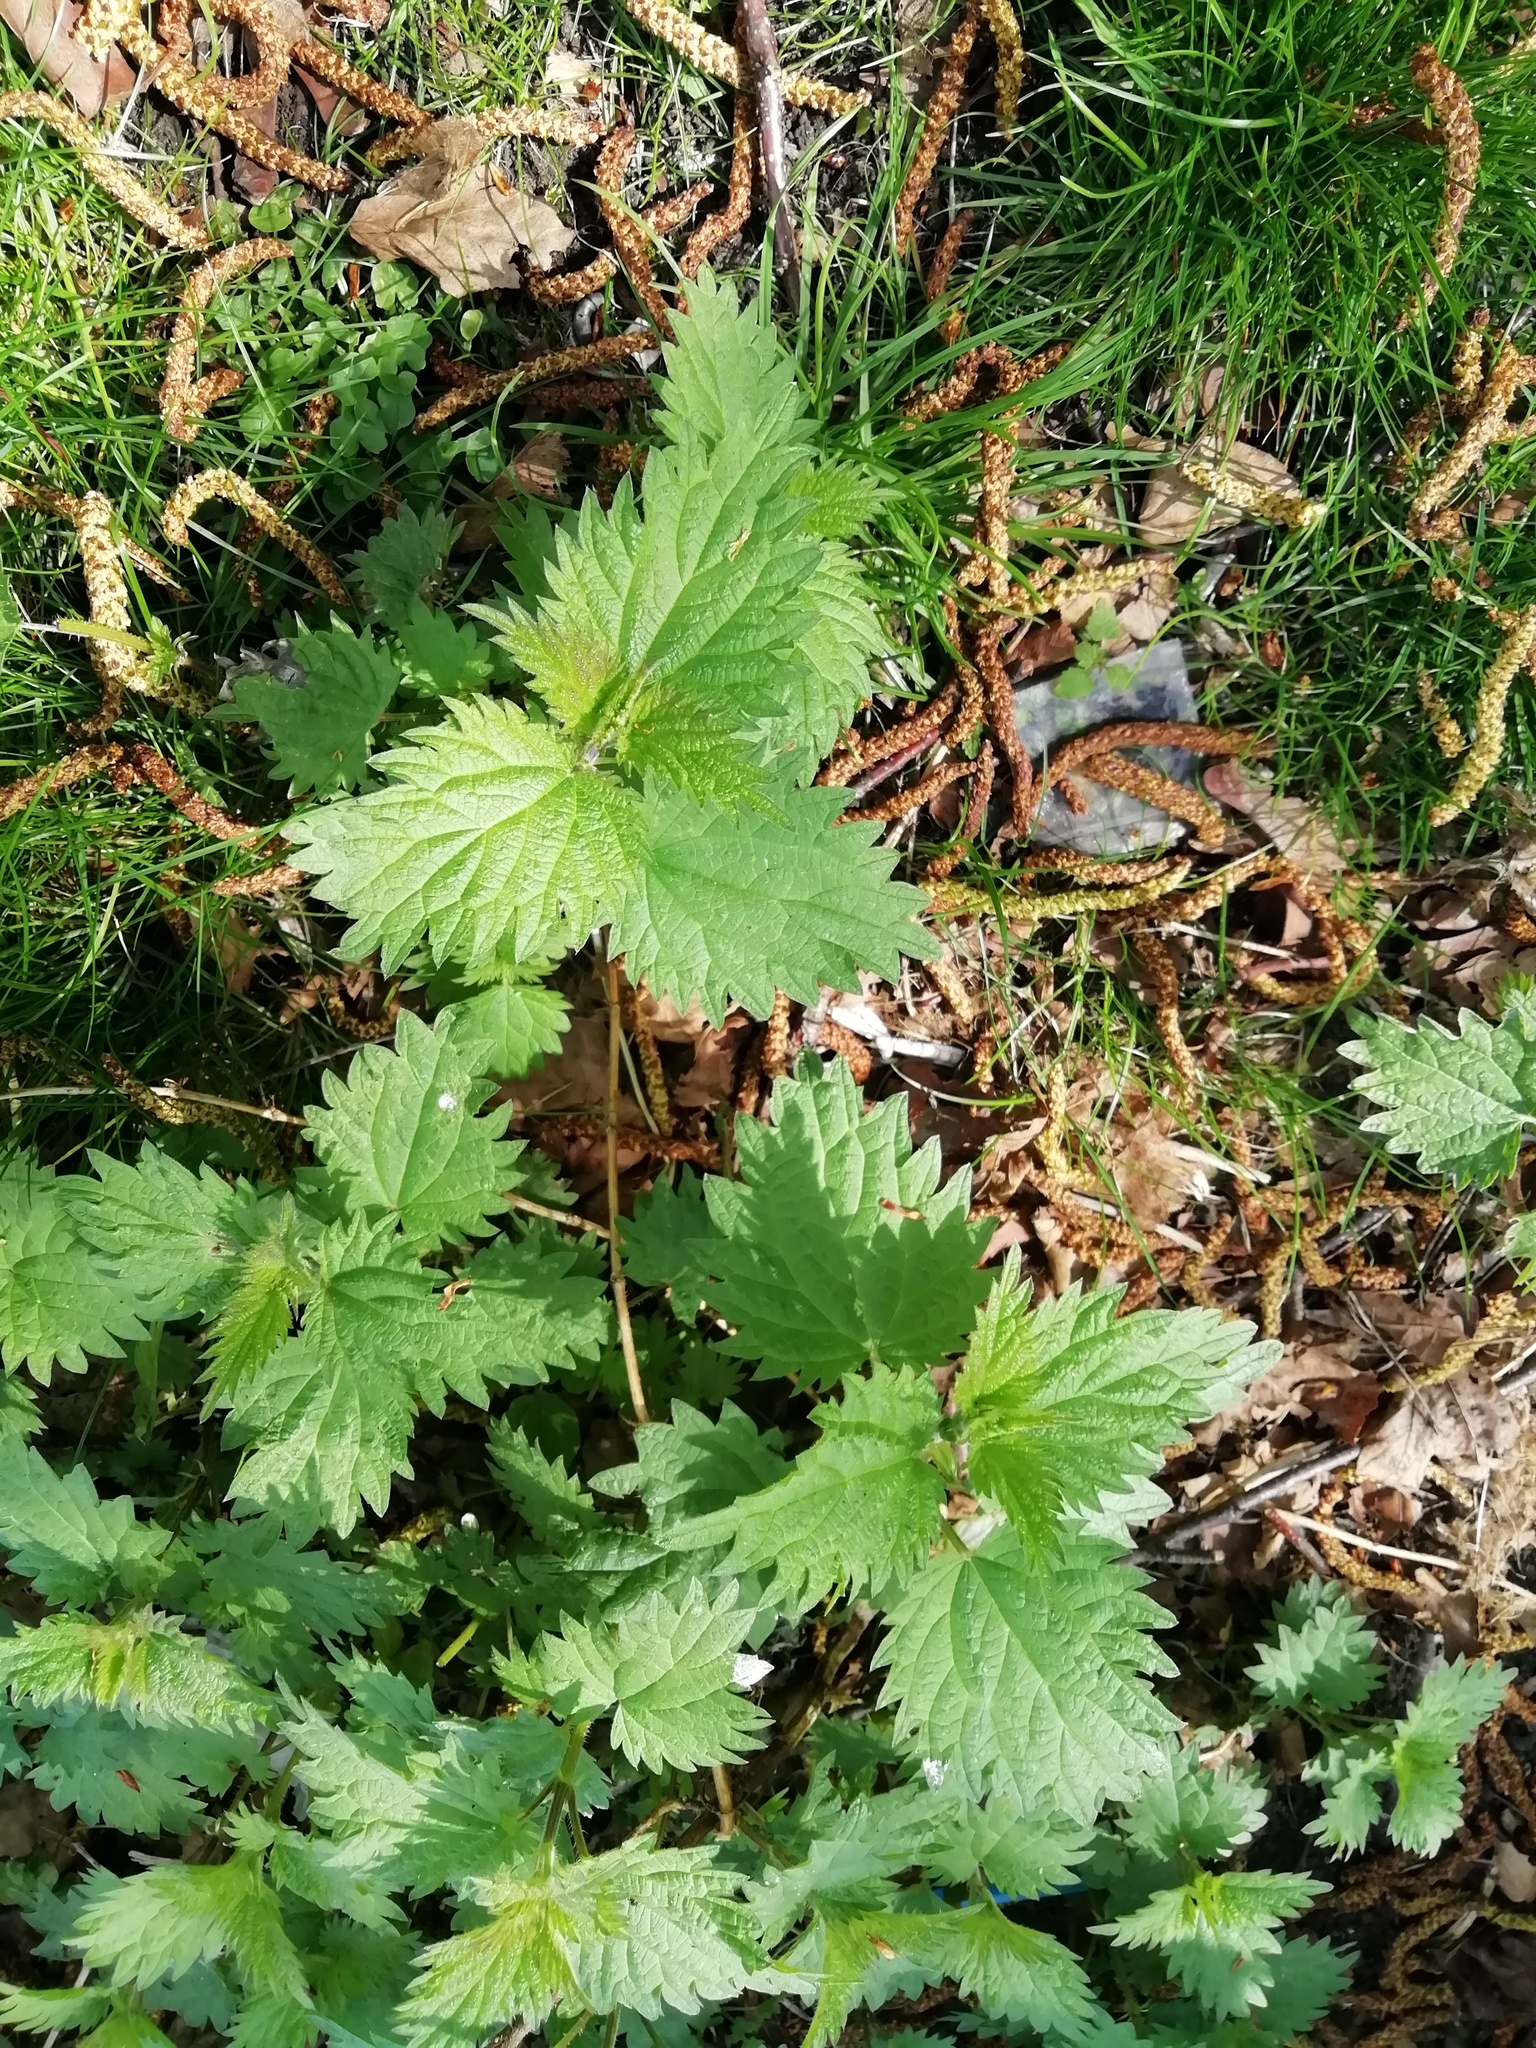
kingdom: Plantae
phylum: Tracheophyta
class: Magnoliopsida
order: Rosales
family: Urticaceae
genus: Urtica
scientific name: Urtica dioica
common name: Common nettle
